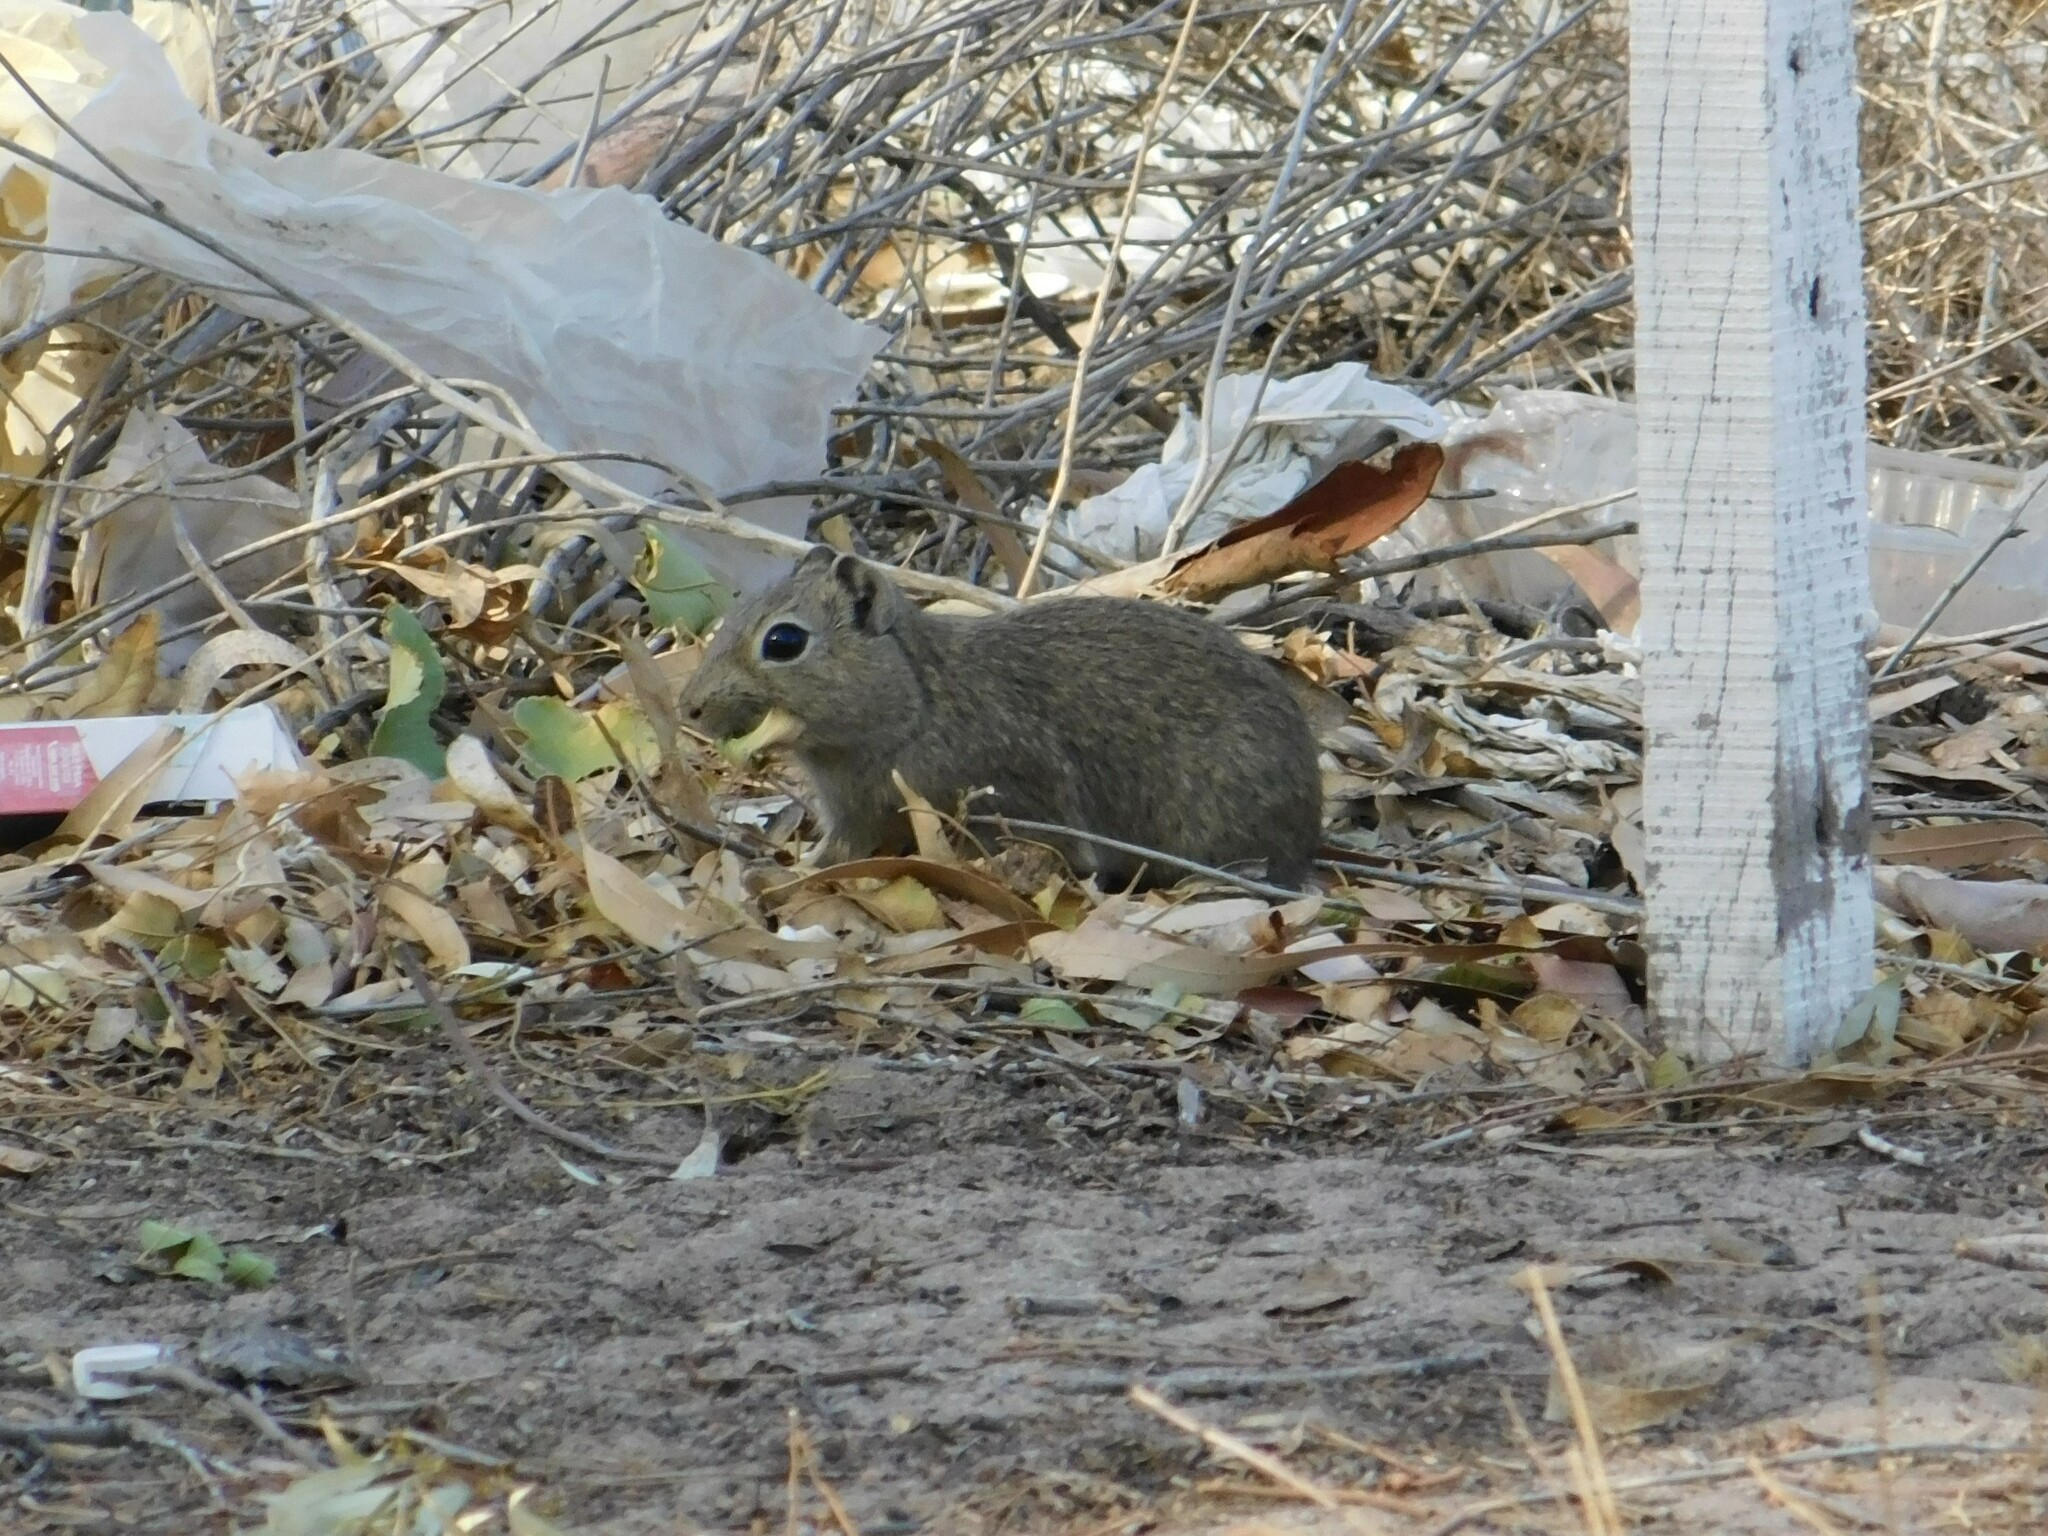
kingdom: Animalia
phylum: Chordata
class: Mammalia
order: Rodentia
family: Caviidae
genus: Microcavia
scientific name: Microcavia australis
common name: Southern mountain cavy
